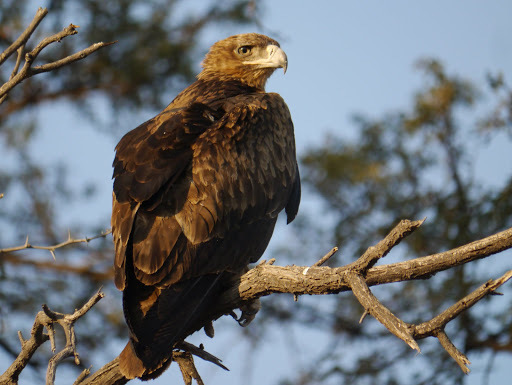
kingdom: Animalia
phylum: Chordata
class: Aves
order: Accipitriformes
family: Accipitridae
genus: Aquila
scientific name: Aquila rapax
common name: Tawny eagle
